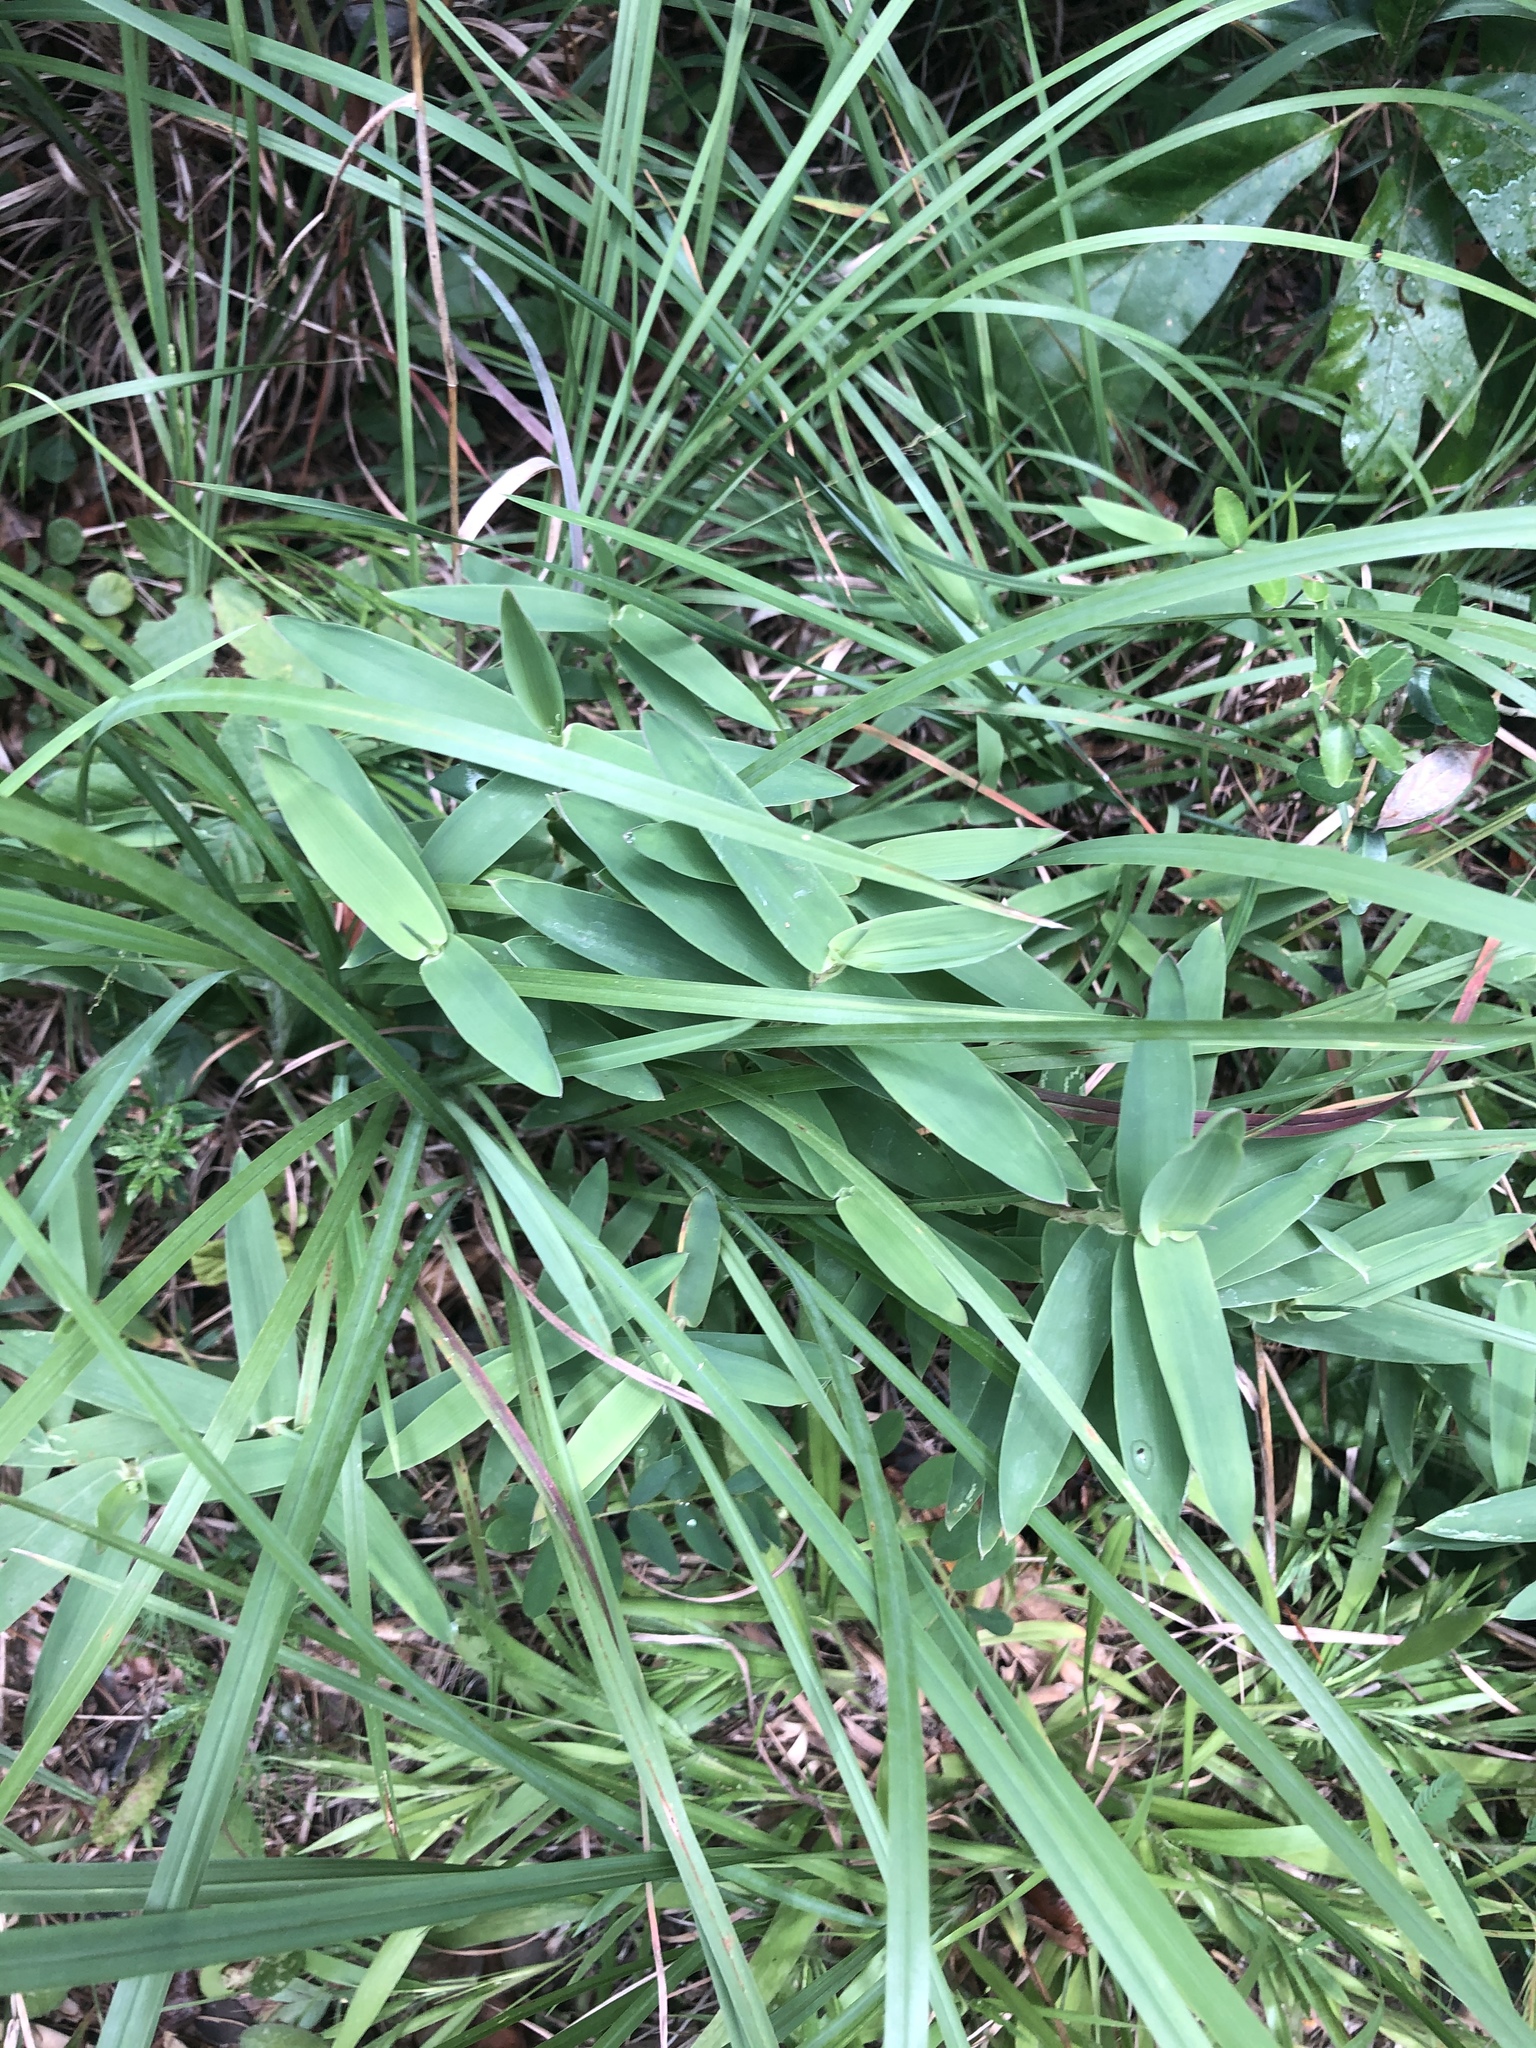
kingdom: Plantae
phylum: Tracheophyta
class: Liliopsida
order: Poales
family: Poaceae
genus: Gymnopogon
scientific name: Gymnopogon ambiguus
